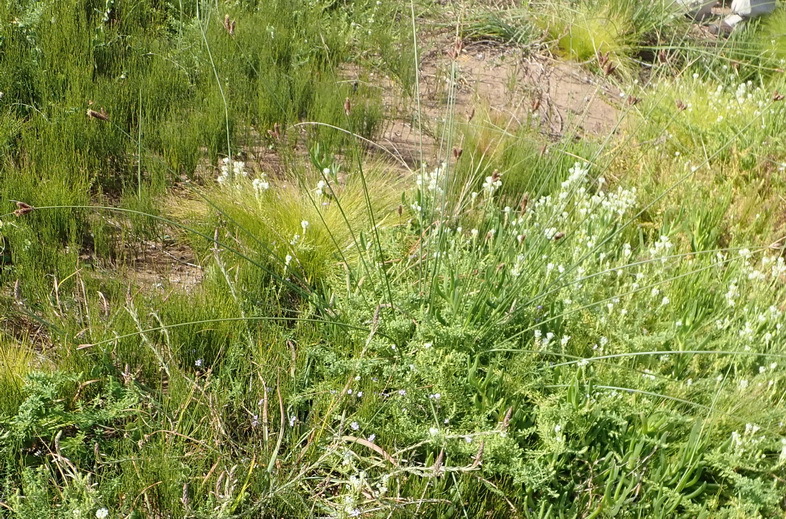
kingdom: Plantae
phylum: Tracheophyta
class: Liliopsida
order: Poales
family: Cyperaceae
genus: Hellmuthia
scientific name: Hellmuthia membranacea
